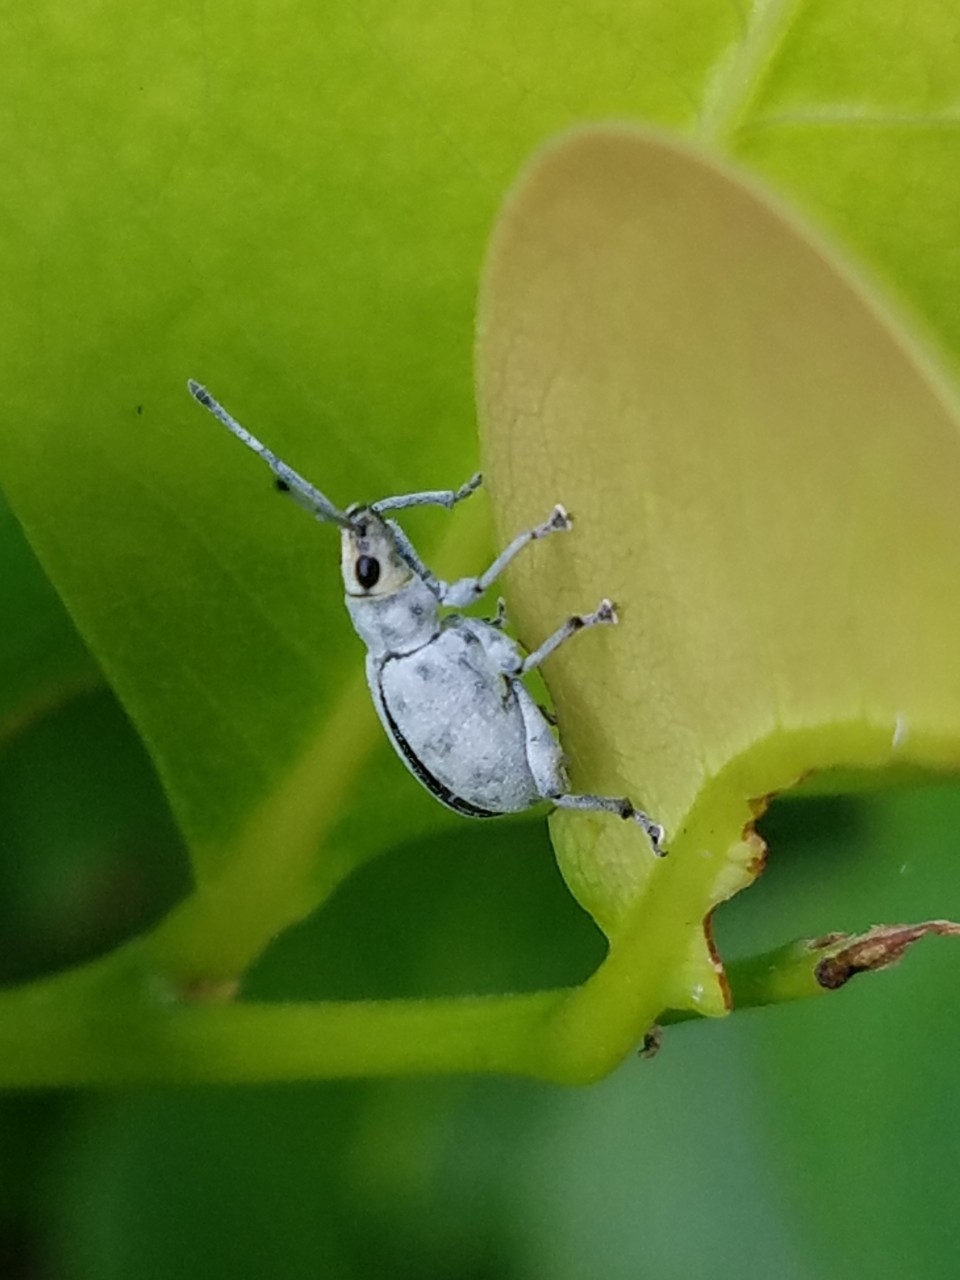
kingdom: Animalia
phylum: Arthropoda
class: Insecta
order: Coleoptera
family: Curculionidae
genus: Myllocerus
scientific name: Myllocerus undecimpustulatus
